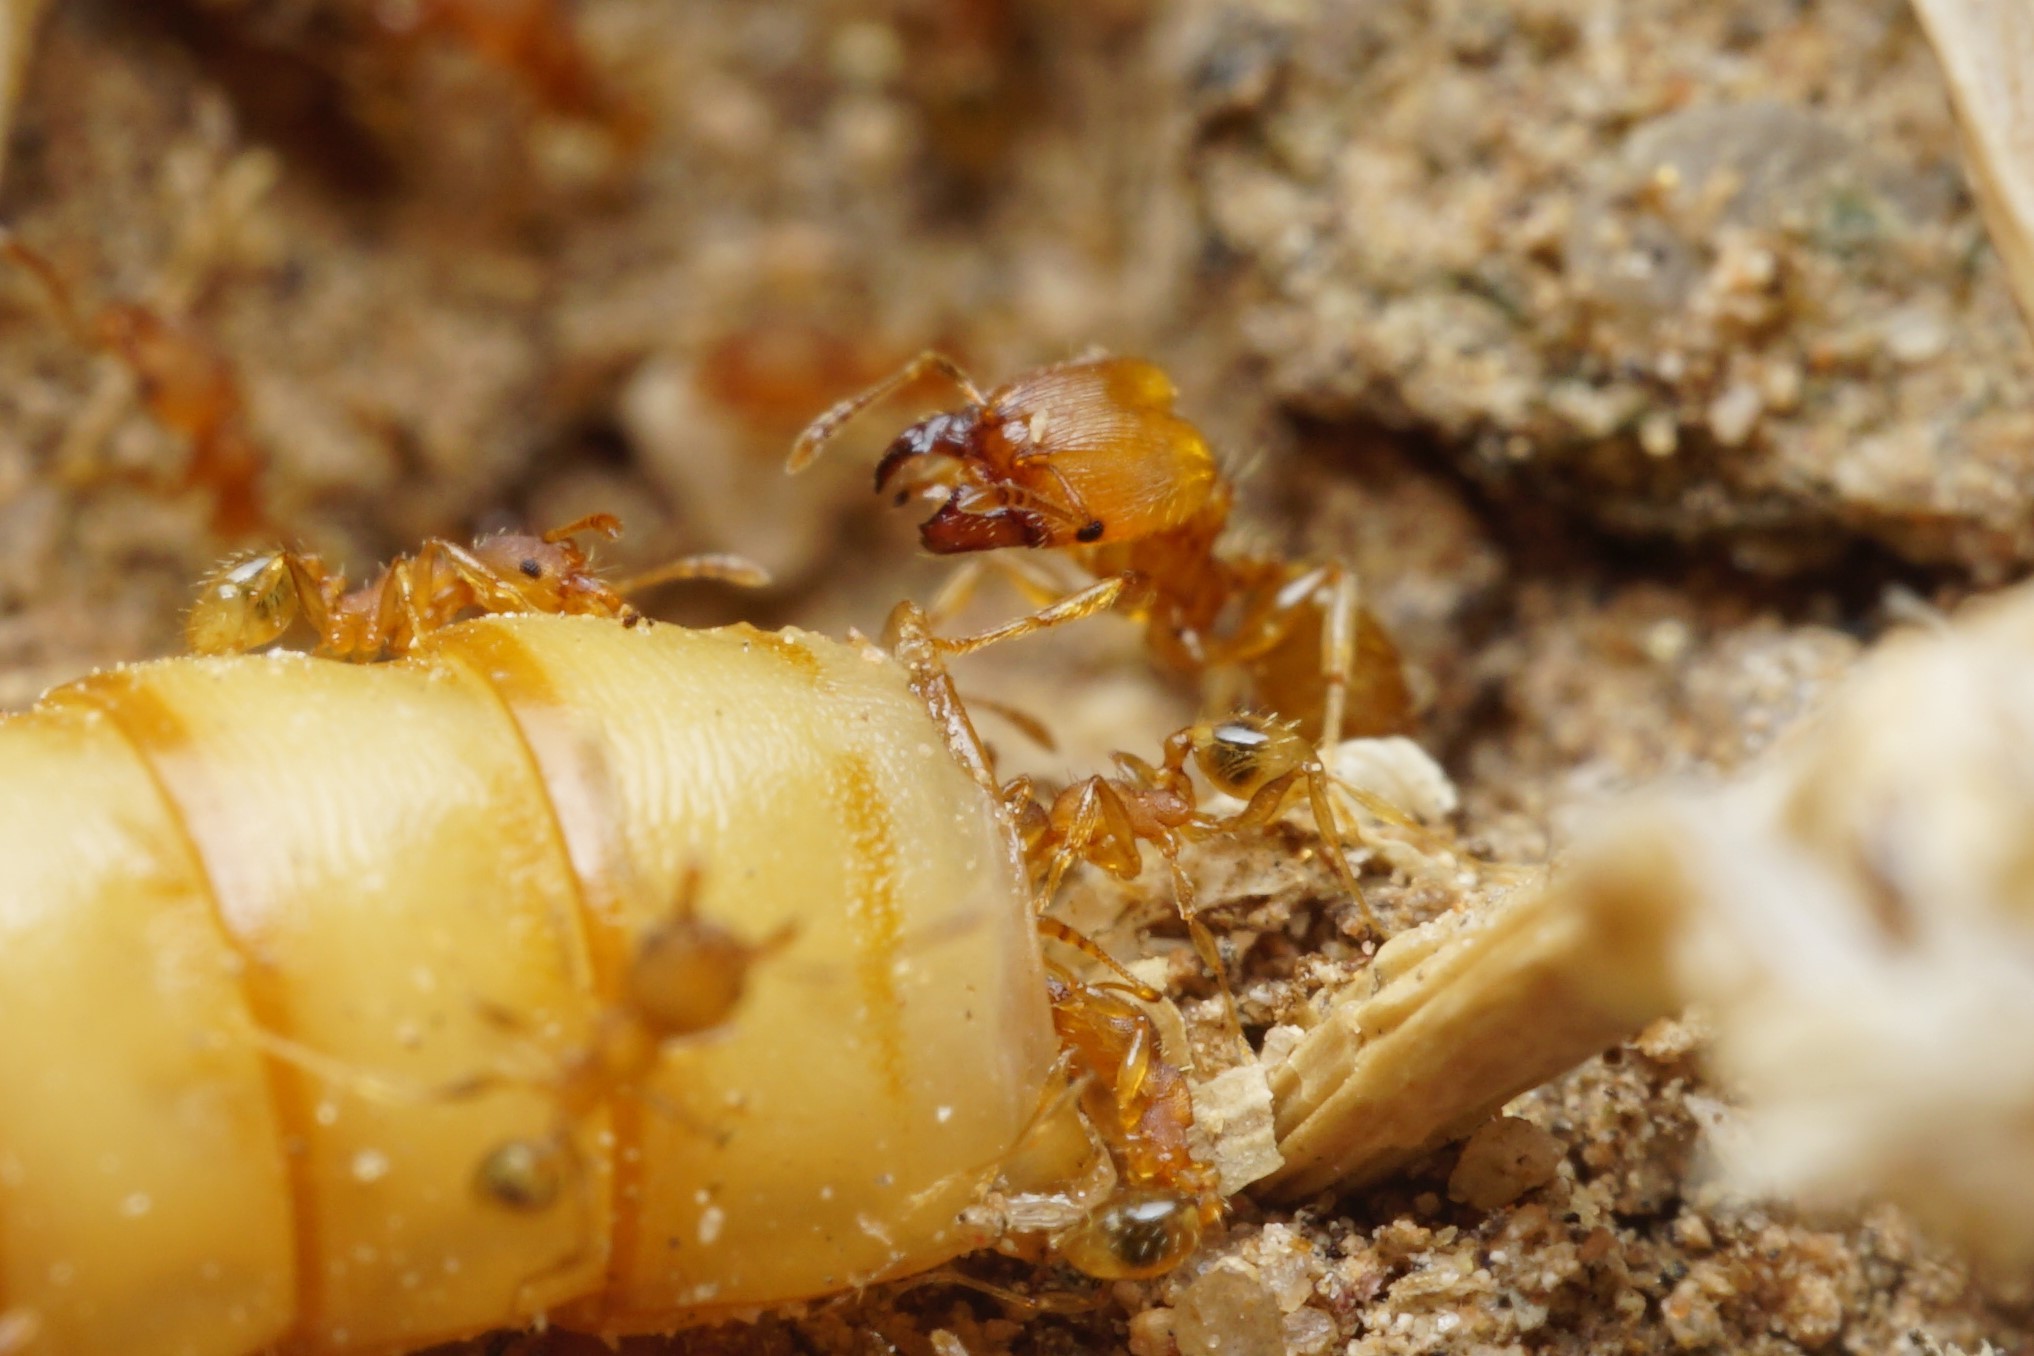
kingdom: Animalia
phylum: Arthropoda
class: Insecta
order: Hymenoptera
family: Formicidae
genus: Pheidole
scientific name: Pheidole bilimeki
